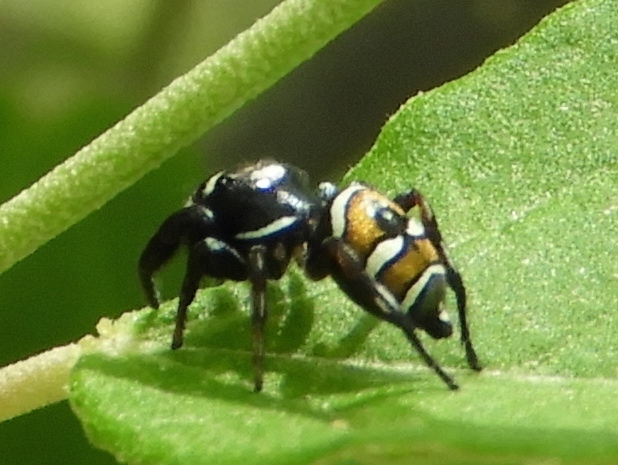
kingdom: Animalia
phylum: Arthropoda
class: Arachnida
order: Araneae
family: Salticidae
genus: Sassacus
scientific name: Sassacus
